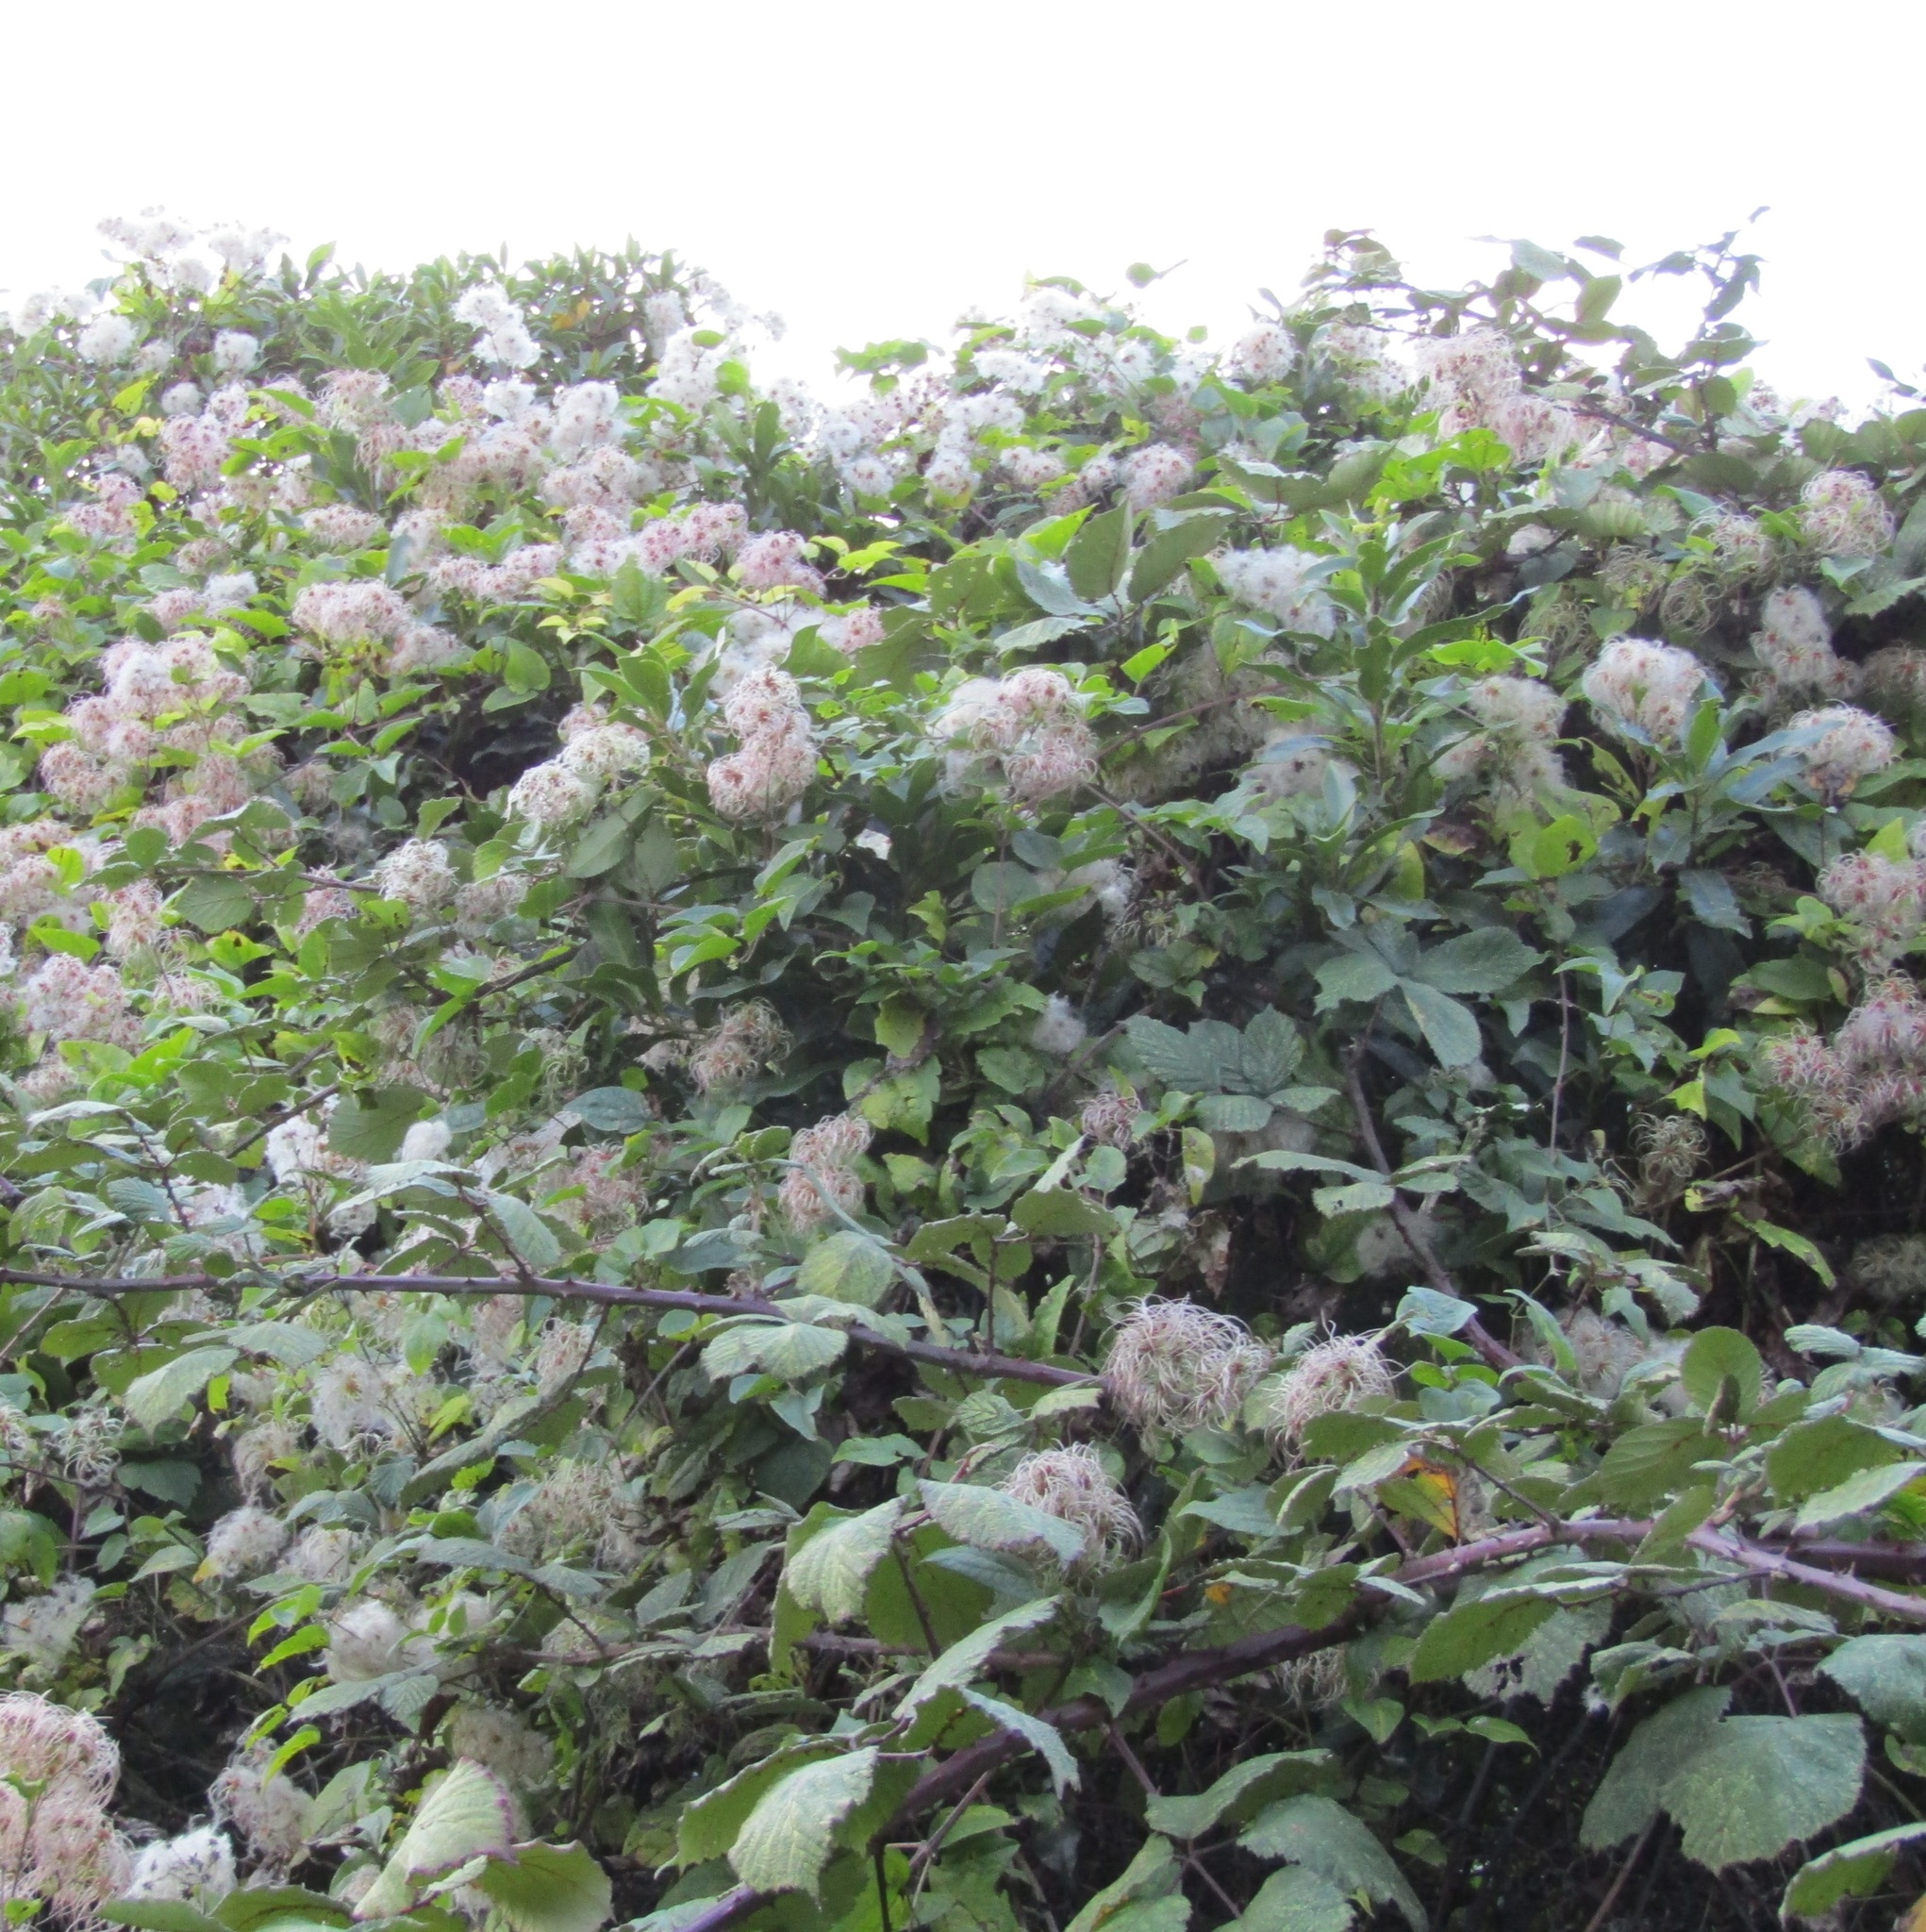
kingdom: Plantae
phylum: Tracheophyta
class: Magnoliopsida
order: Ranunculales
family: Ranunculaceae
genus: Clematis
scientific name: Clematis vitalba
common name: Evergreen clematis
